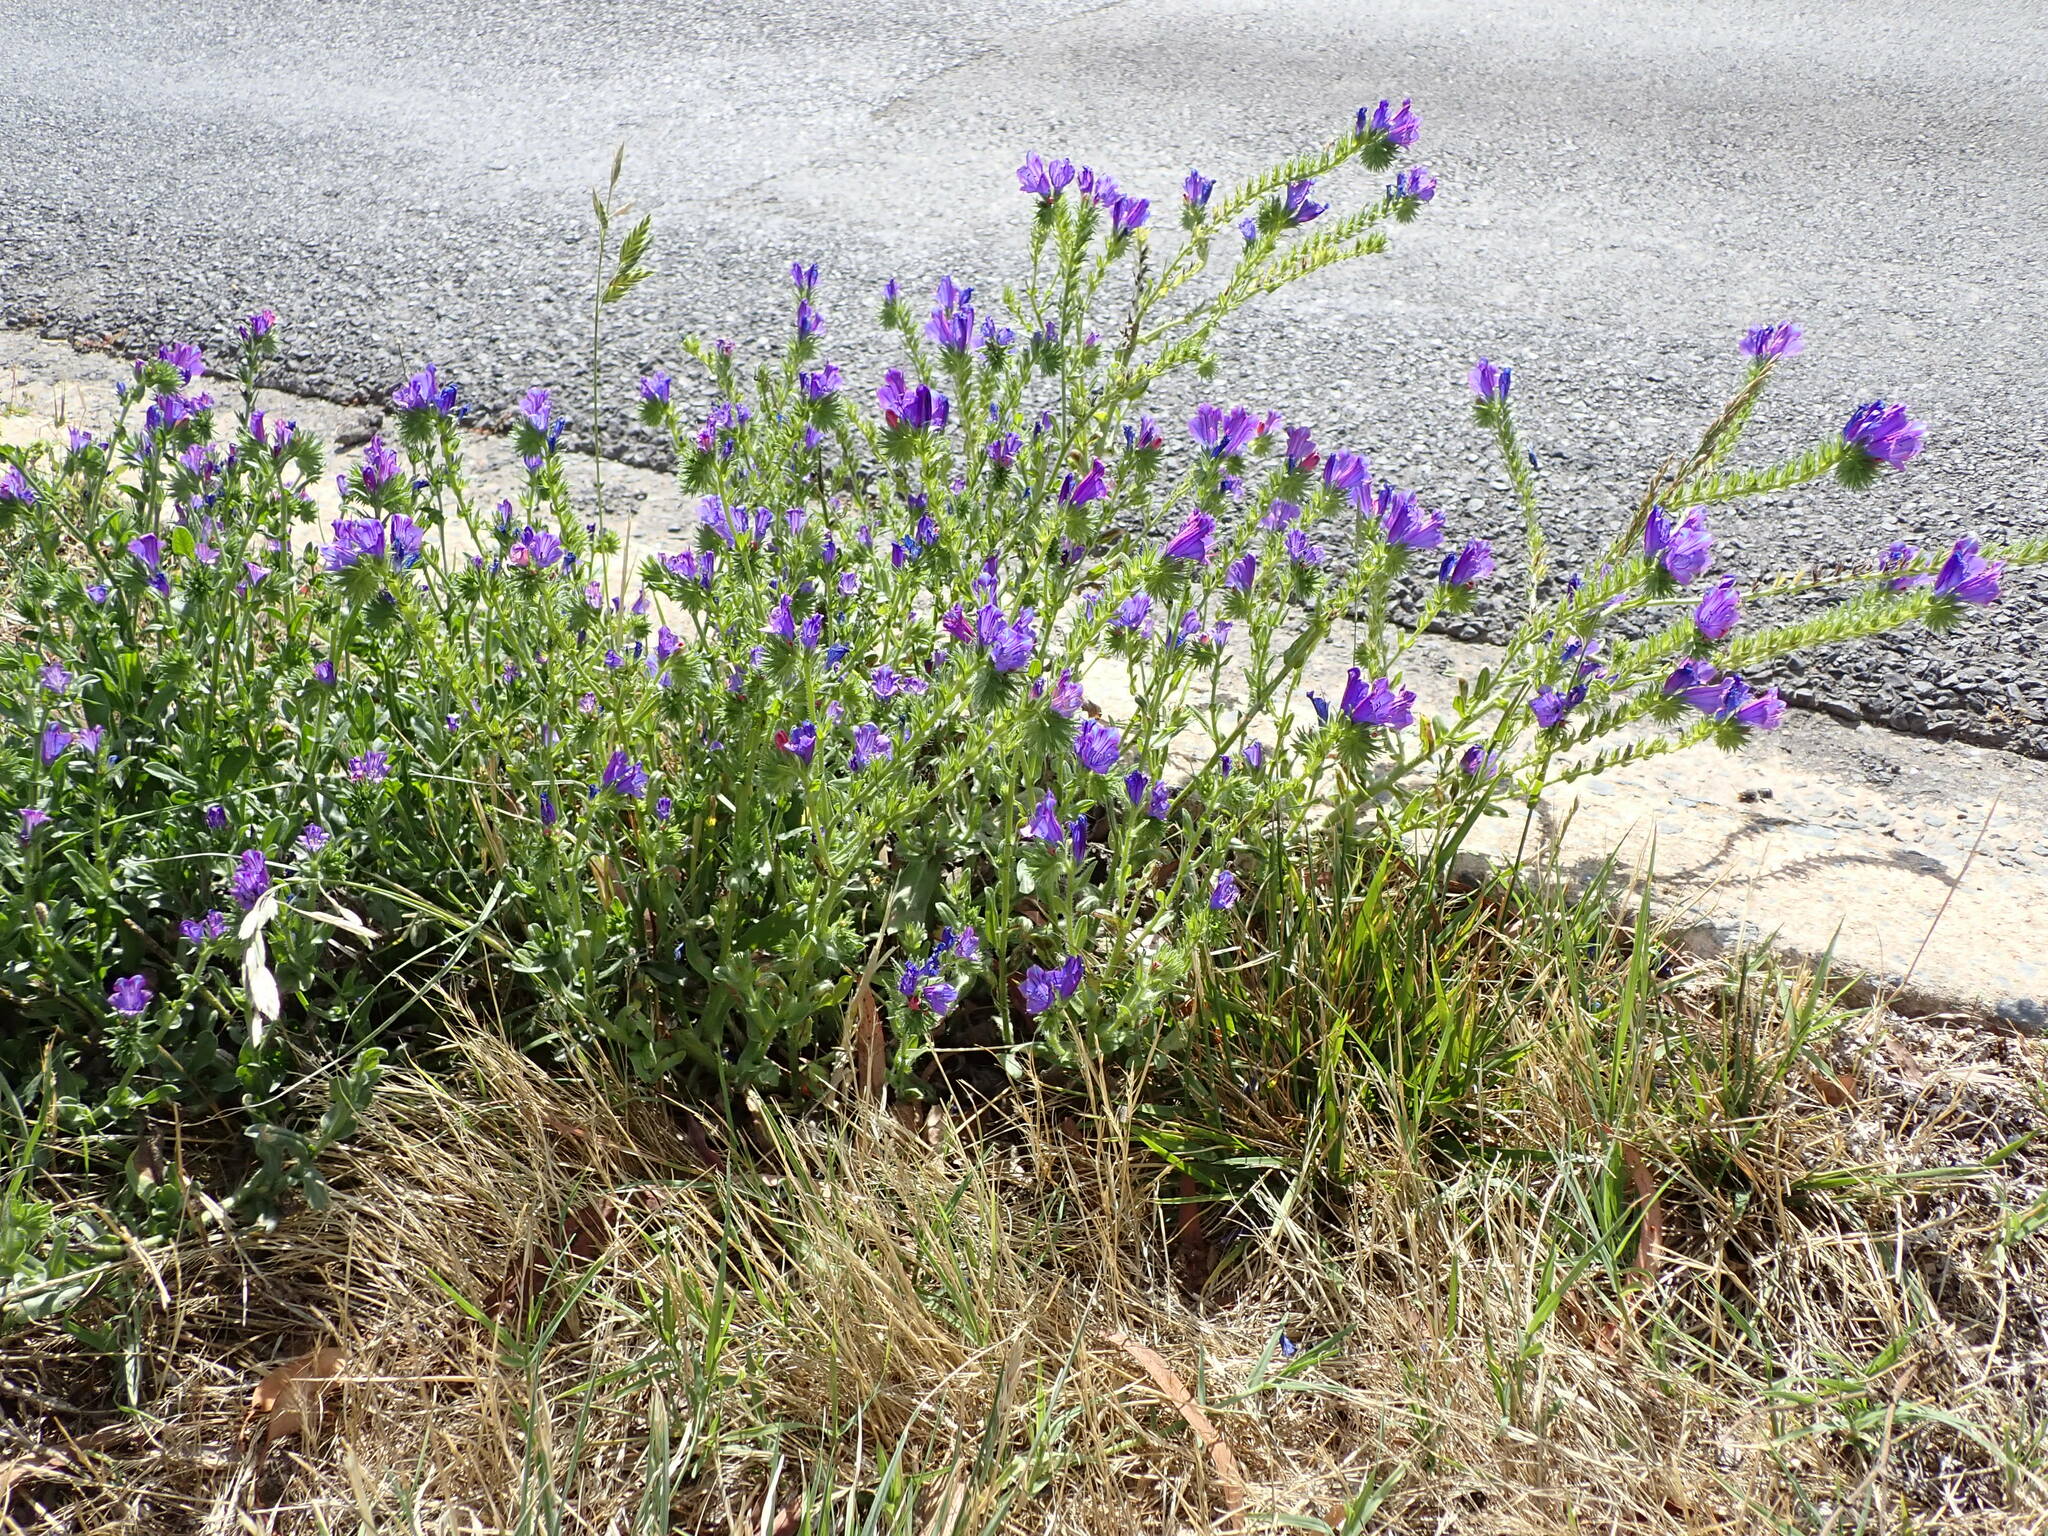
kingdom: Plantae
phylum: Tracheophyta
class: Magnoliopsida
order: Boraginales
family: Boraginaceae
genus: Echium
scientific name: Echium plantagineum
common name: Purple viper's-bugloss
